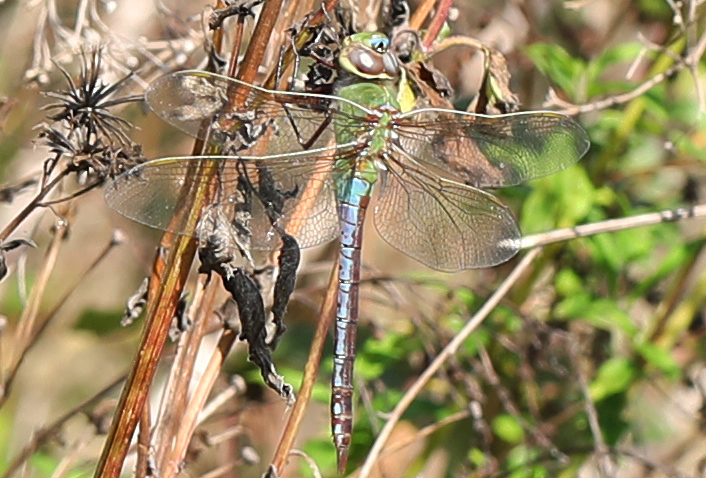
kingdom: Animalia
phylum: Arthropoda
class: Insecta
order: Odonata
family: Aeshnidae
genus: Anax
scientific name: Anax junius
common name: Common green darner
